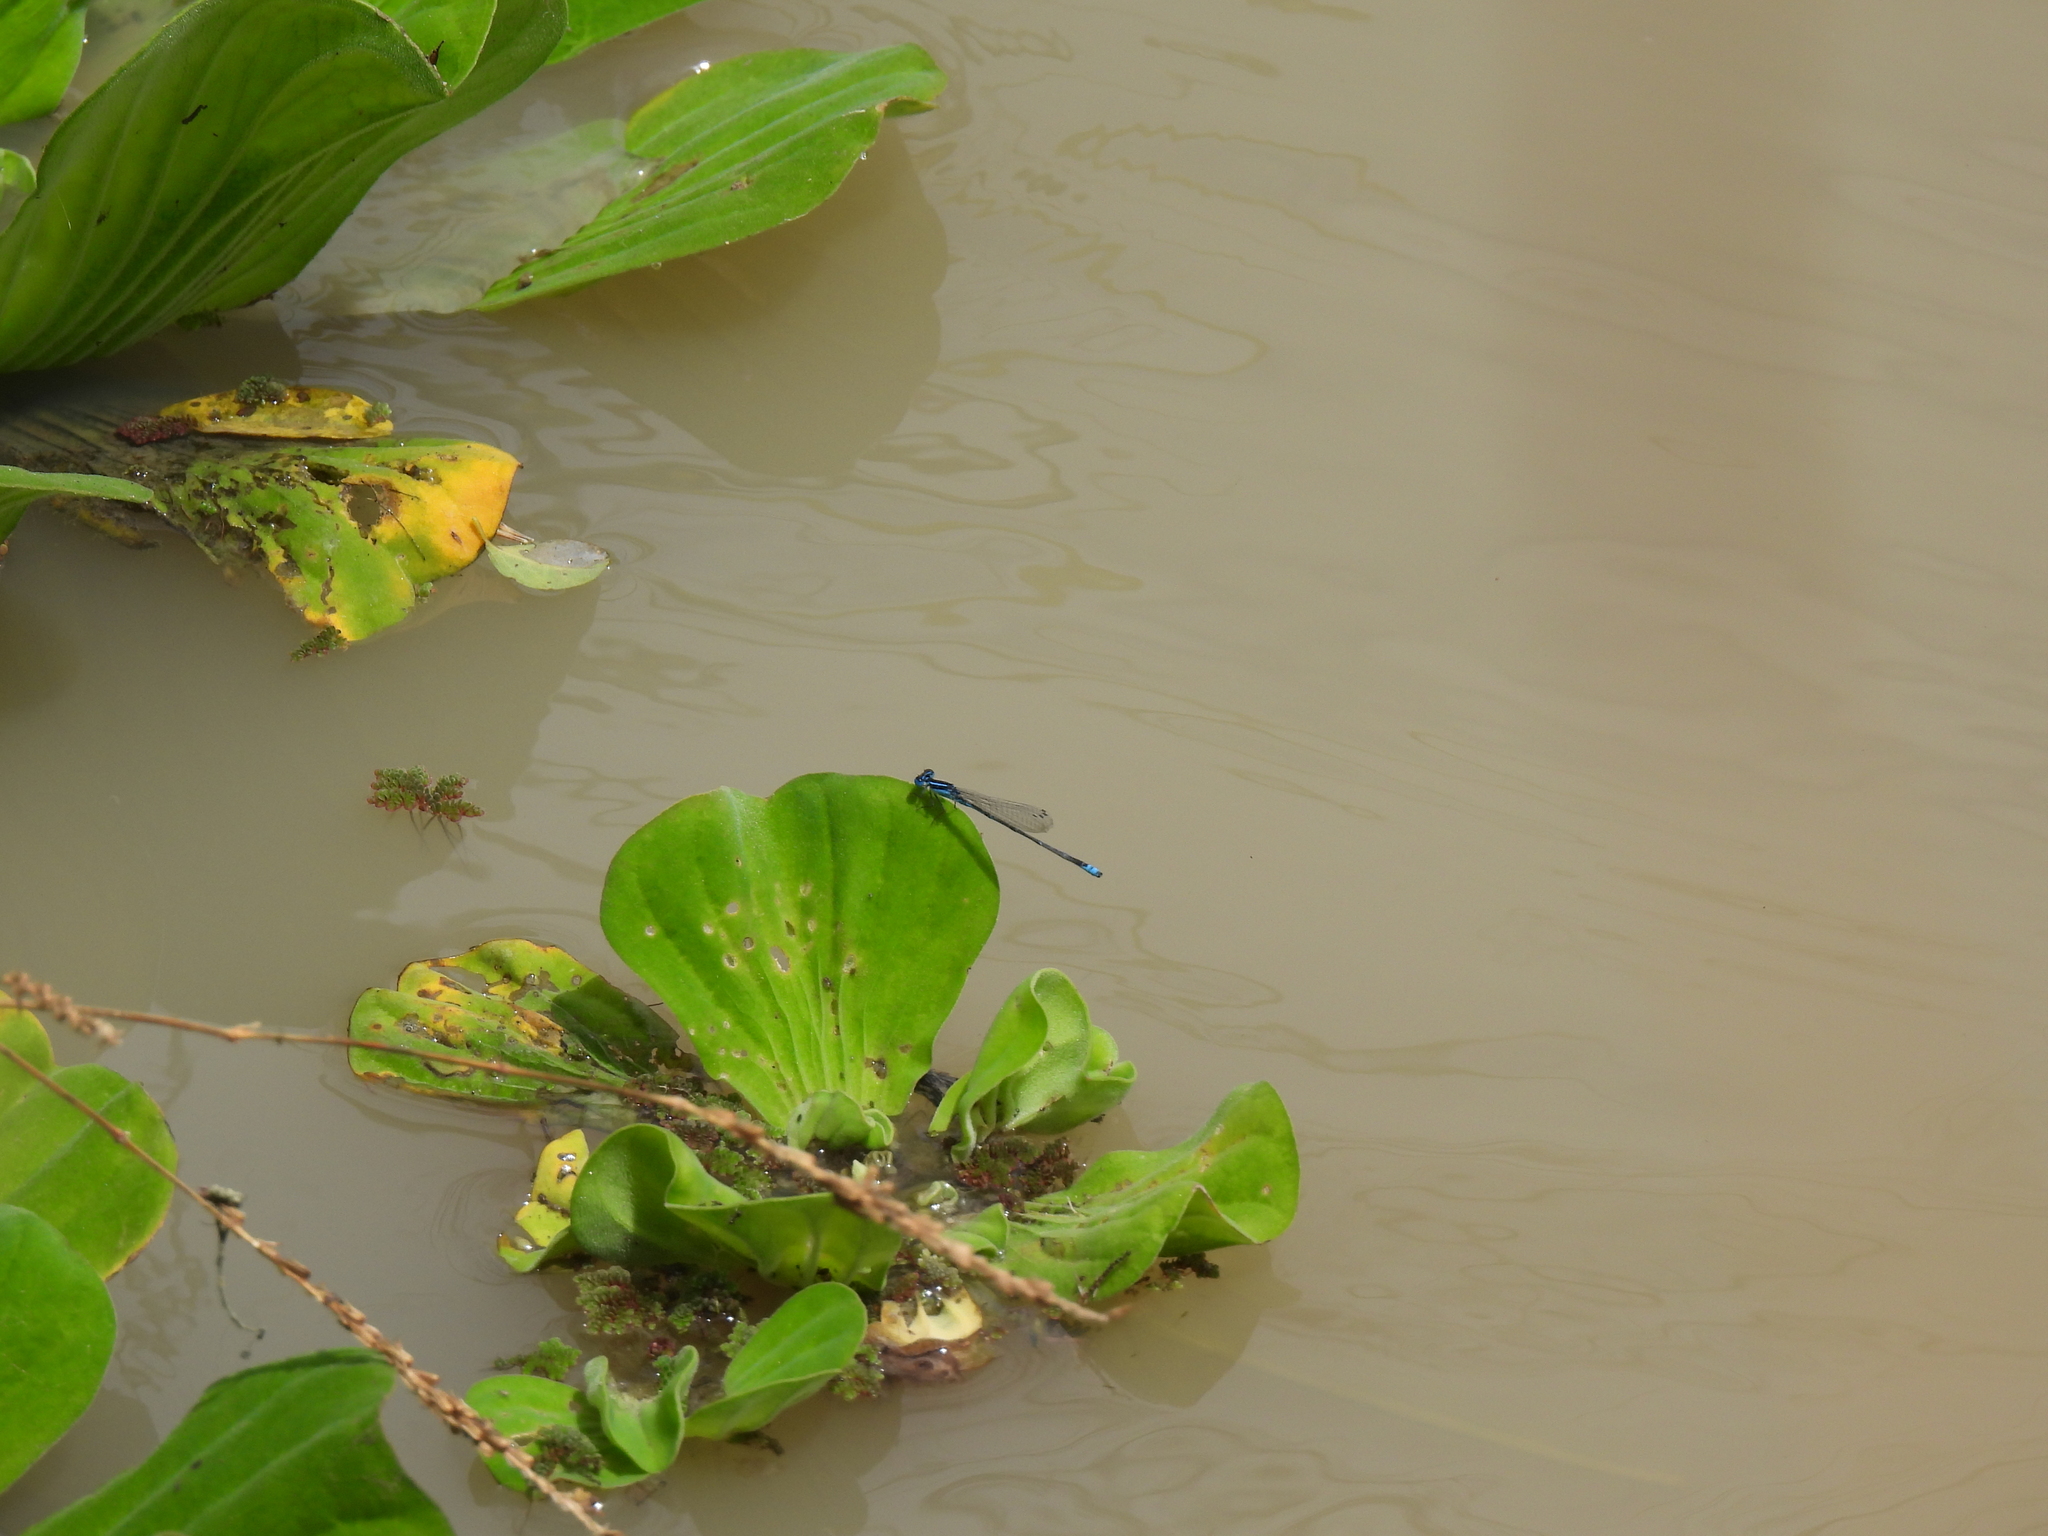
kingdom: Plantae
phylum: Tracheophyta
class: Liliopsida
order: Alismatales
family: Araceae
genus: Pistia
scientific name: Pistia stratiotes
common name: Water lettuce
